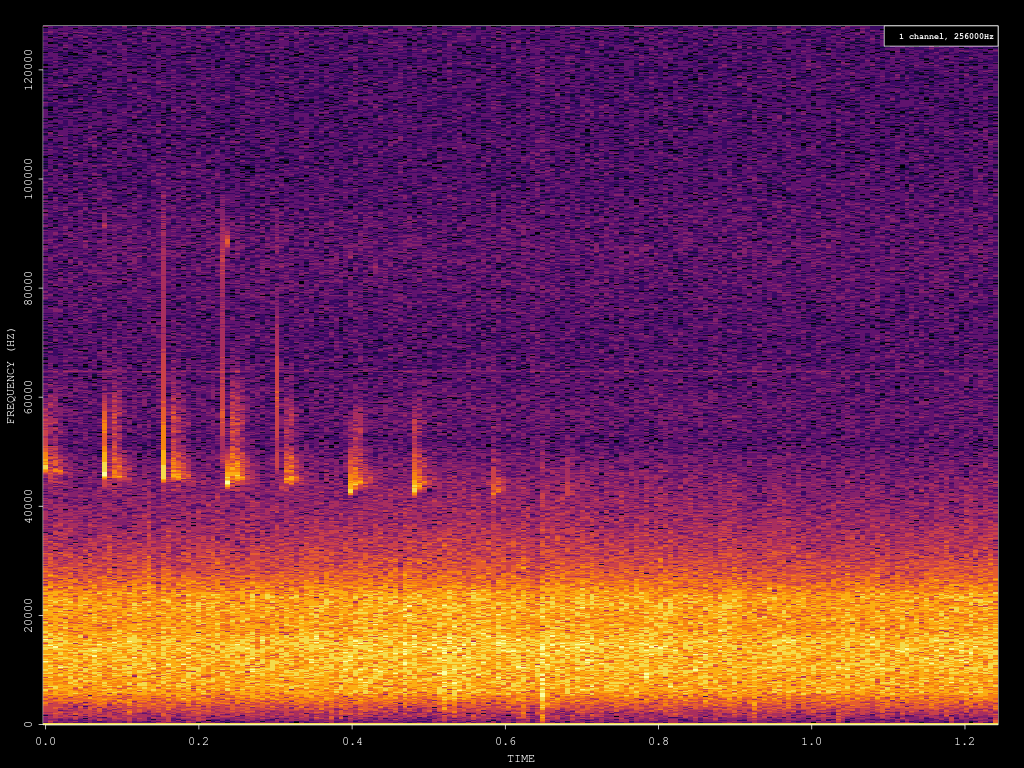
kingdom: Animalia
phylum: Chordata
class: Mammalia
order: Chiroptera
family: Vespertilionidae
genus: Pipistrellus
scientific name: Pipistrellus pipistrellus
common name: Common pipistrelle
